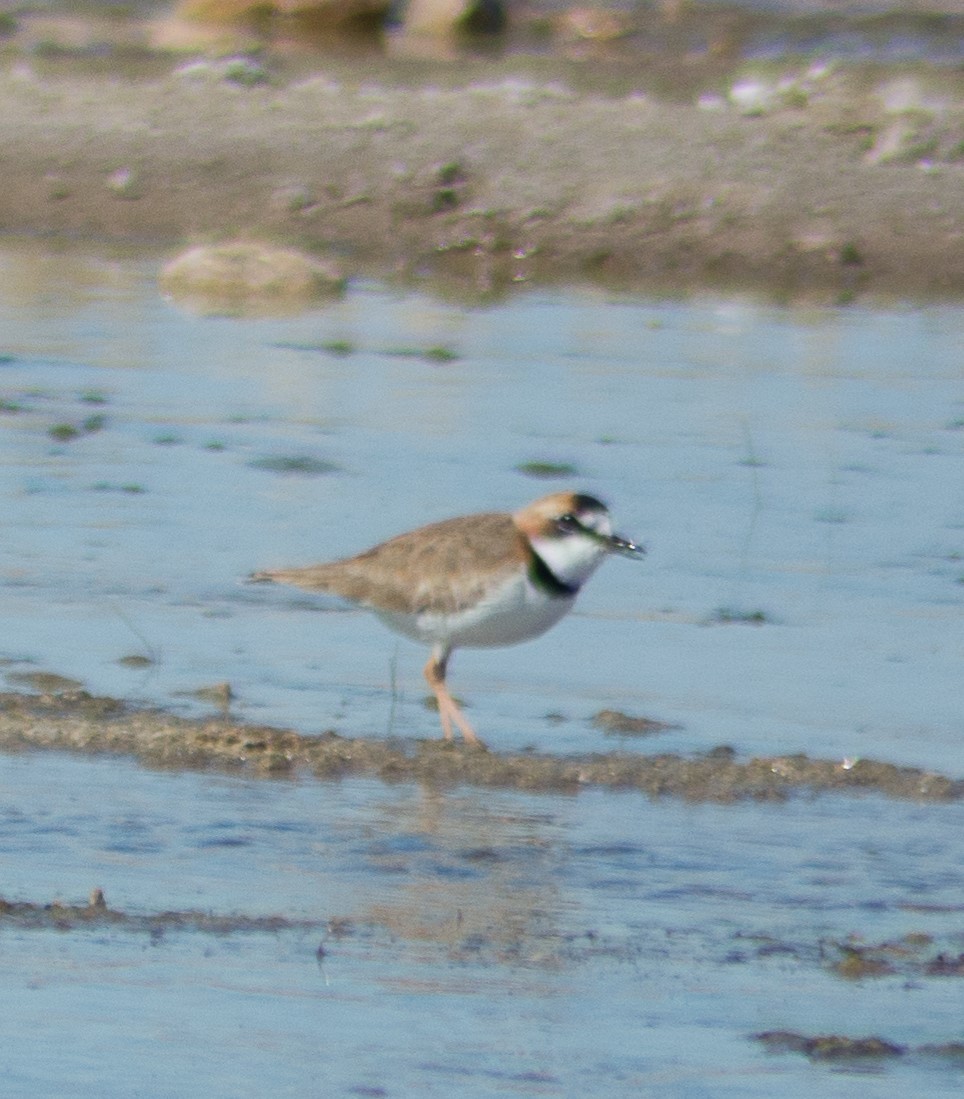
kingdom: Animalia
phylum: Chordata
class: Aves
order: Charadriiformes
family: Charadriidae
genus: Anarhynchus
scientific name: Anarhynchus
